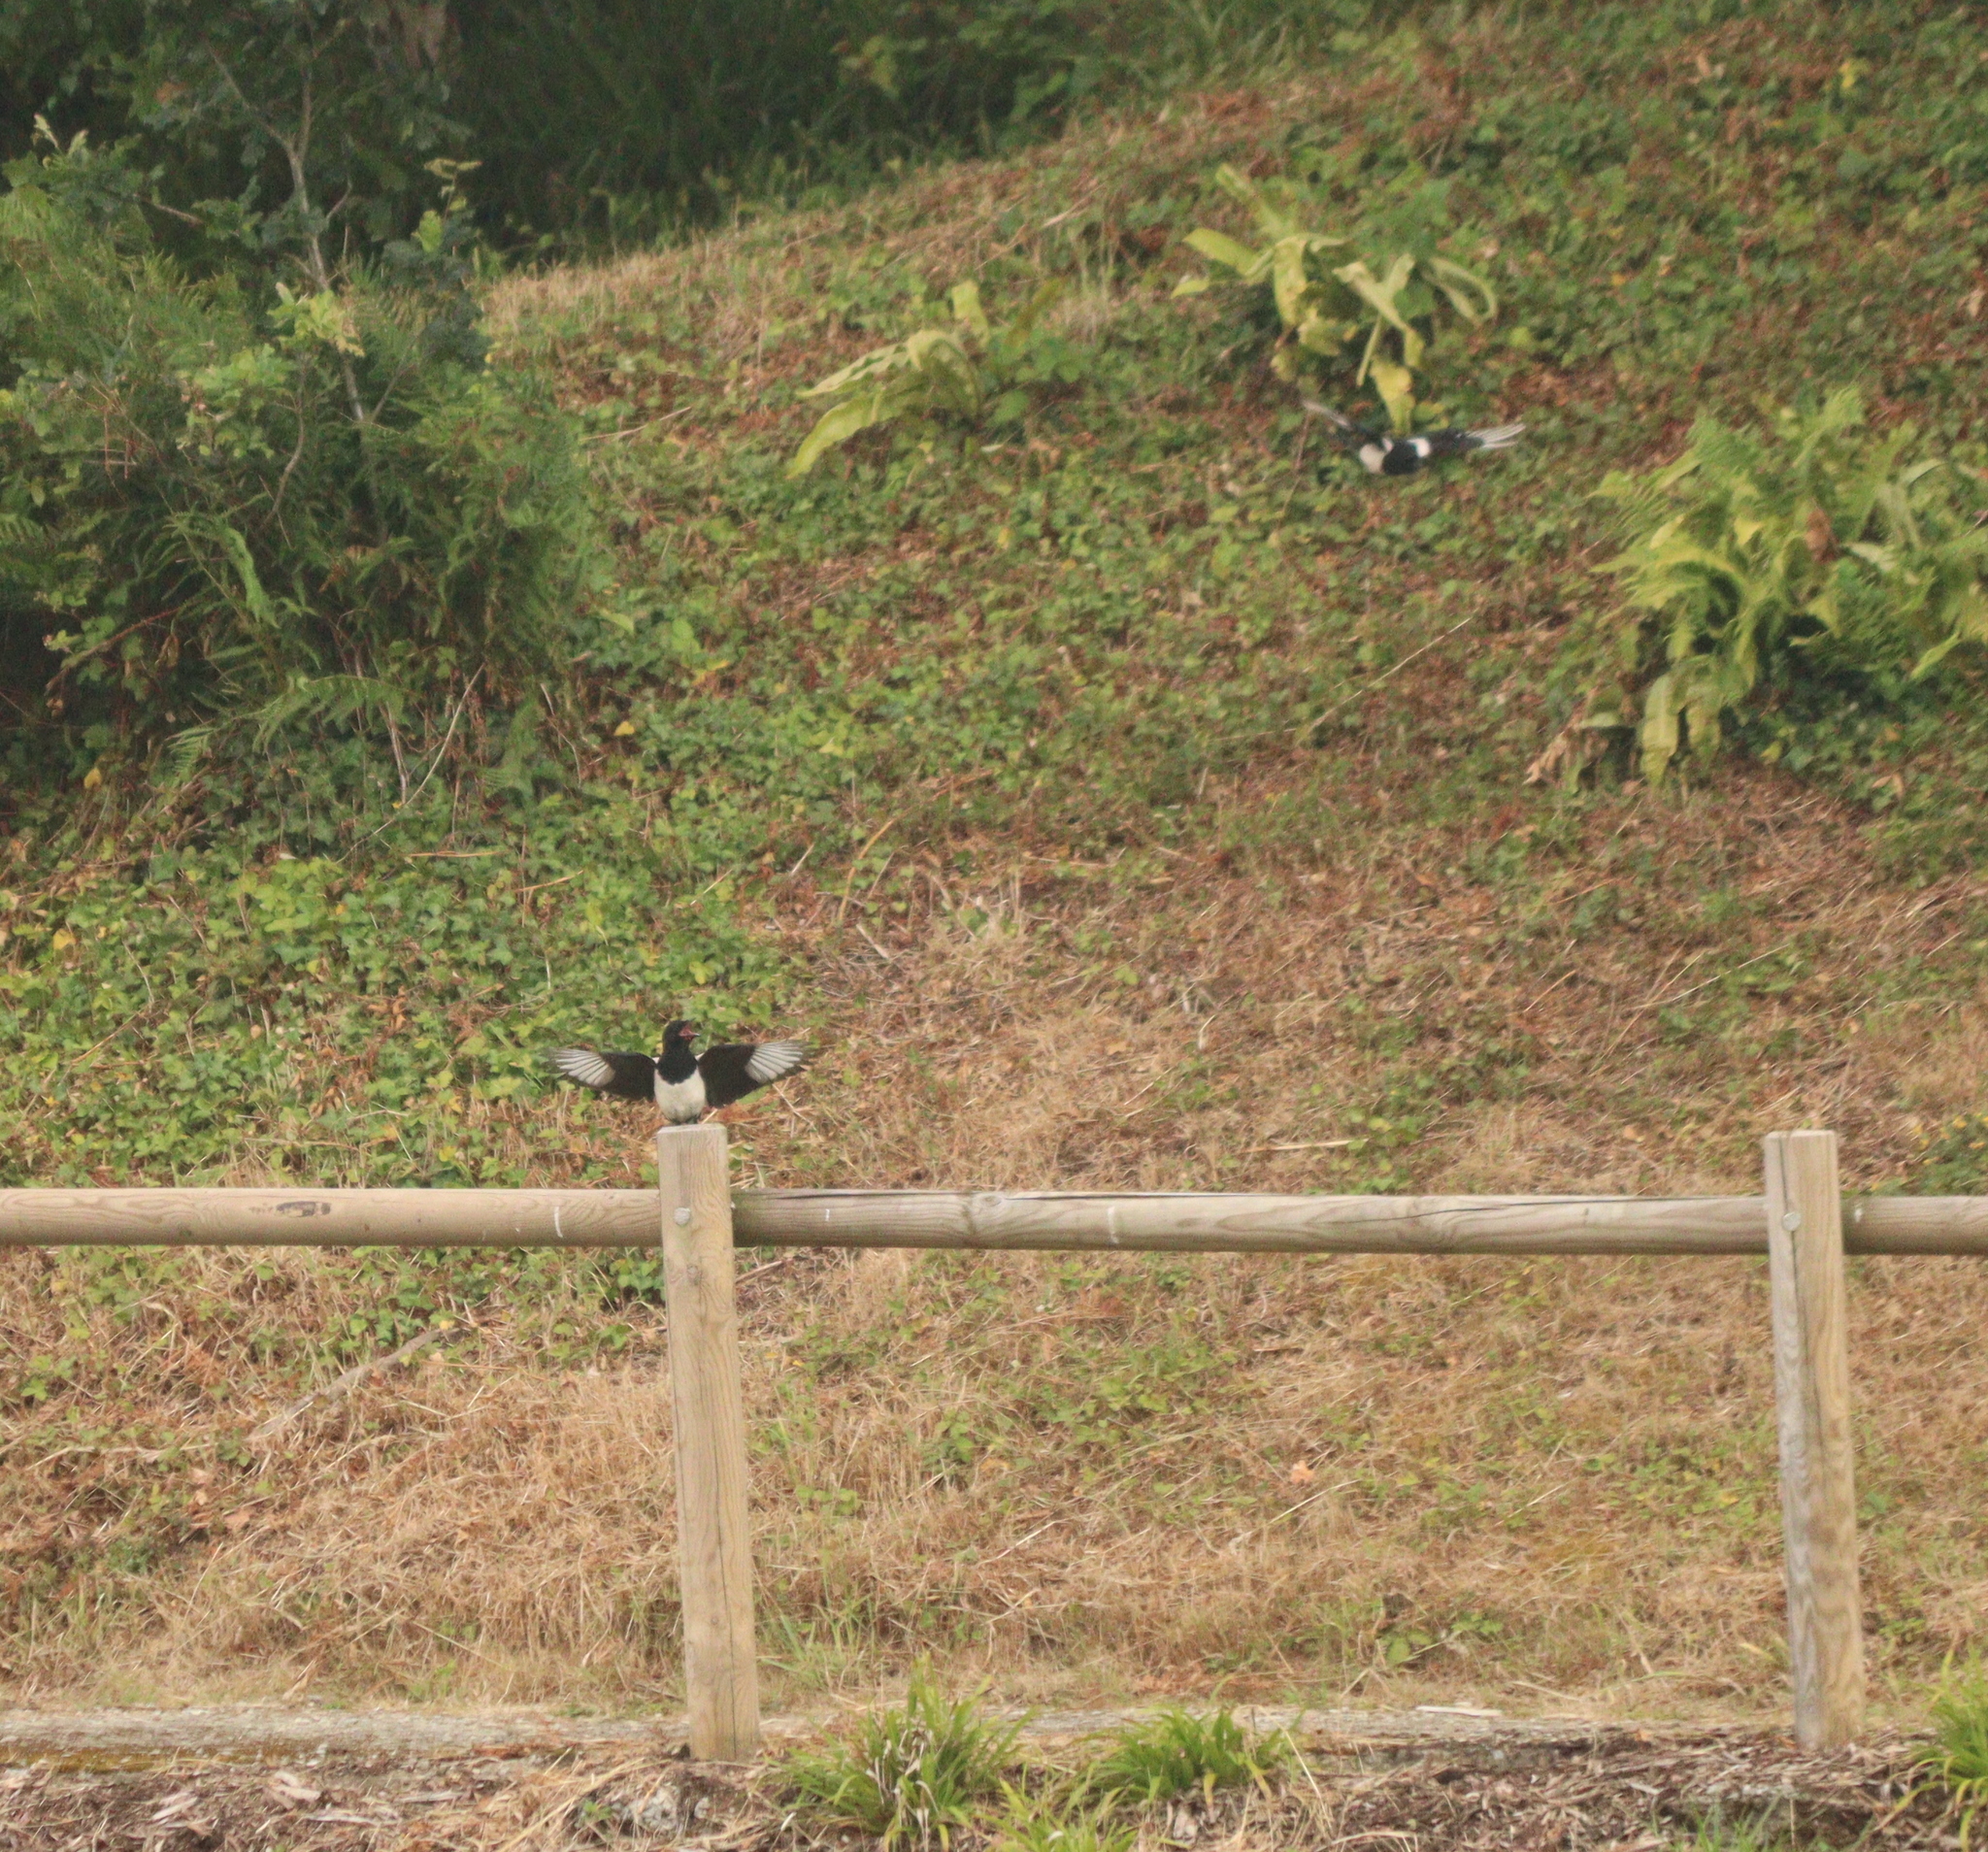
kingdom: Animalia
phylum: Chordata
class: Aves
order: Passeriformes
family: Corvidae
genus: Pica
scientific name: Pica pica
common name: Eurasian magpie
